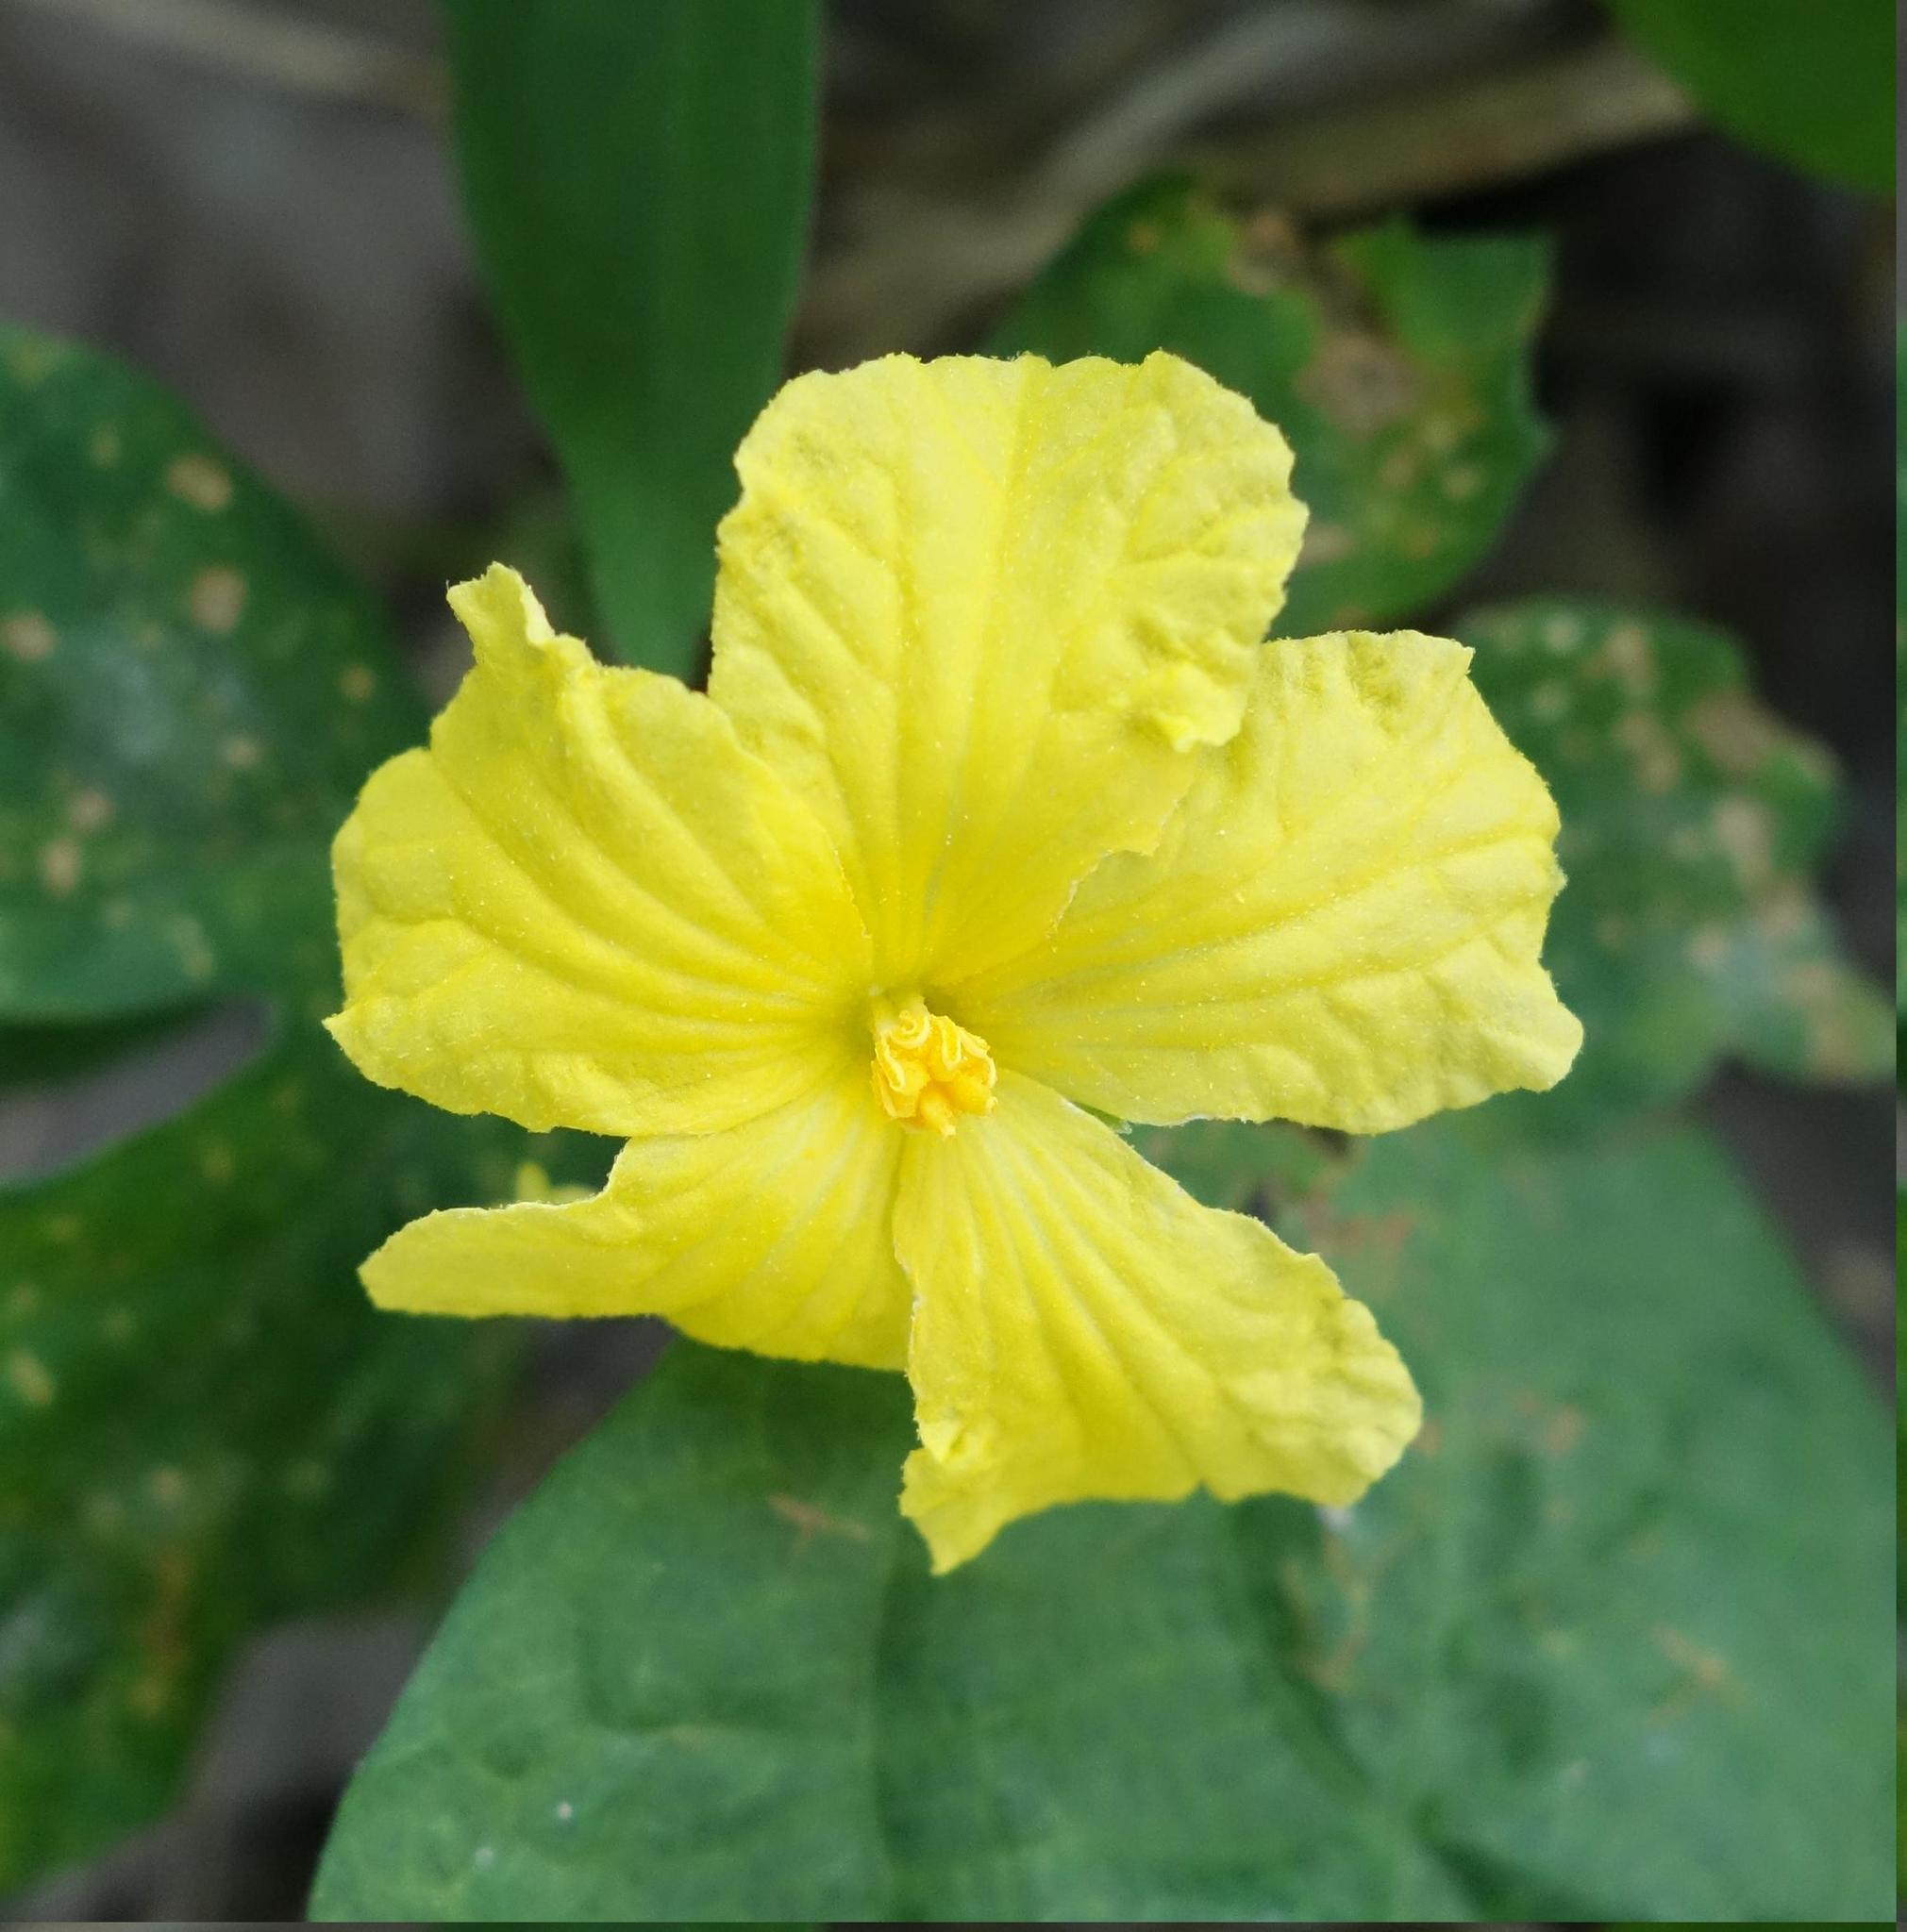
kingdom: Plantae
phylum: Tracheophyta
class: Magnoliopsida
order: Cucurbitales
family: Cucurbitaceae
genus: Momordica
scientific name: Momordica charantia
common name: Balsampear
